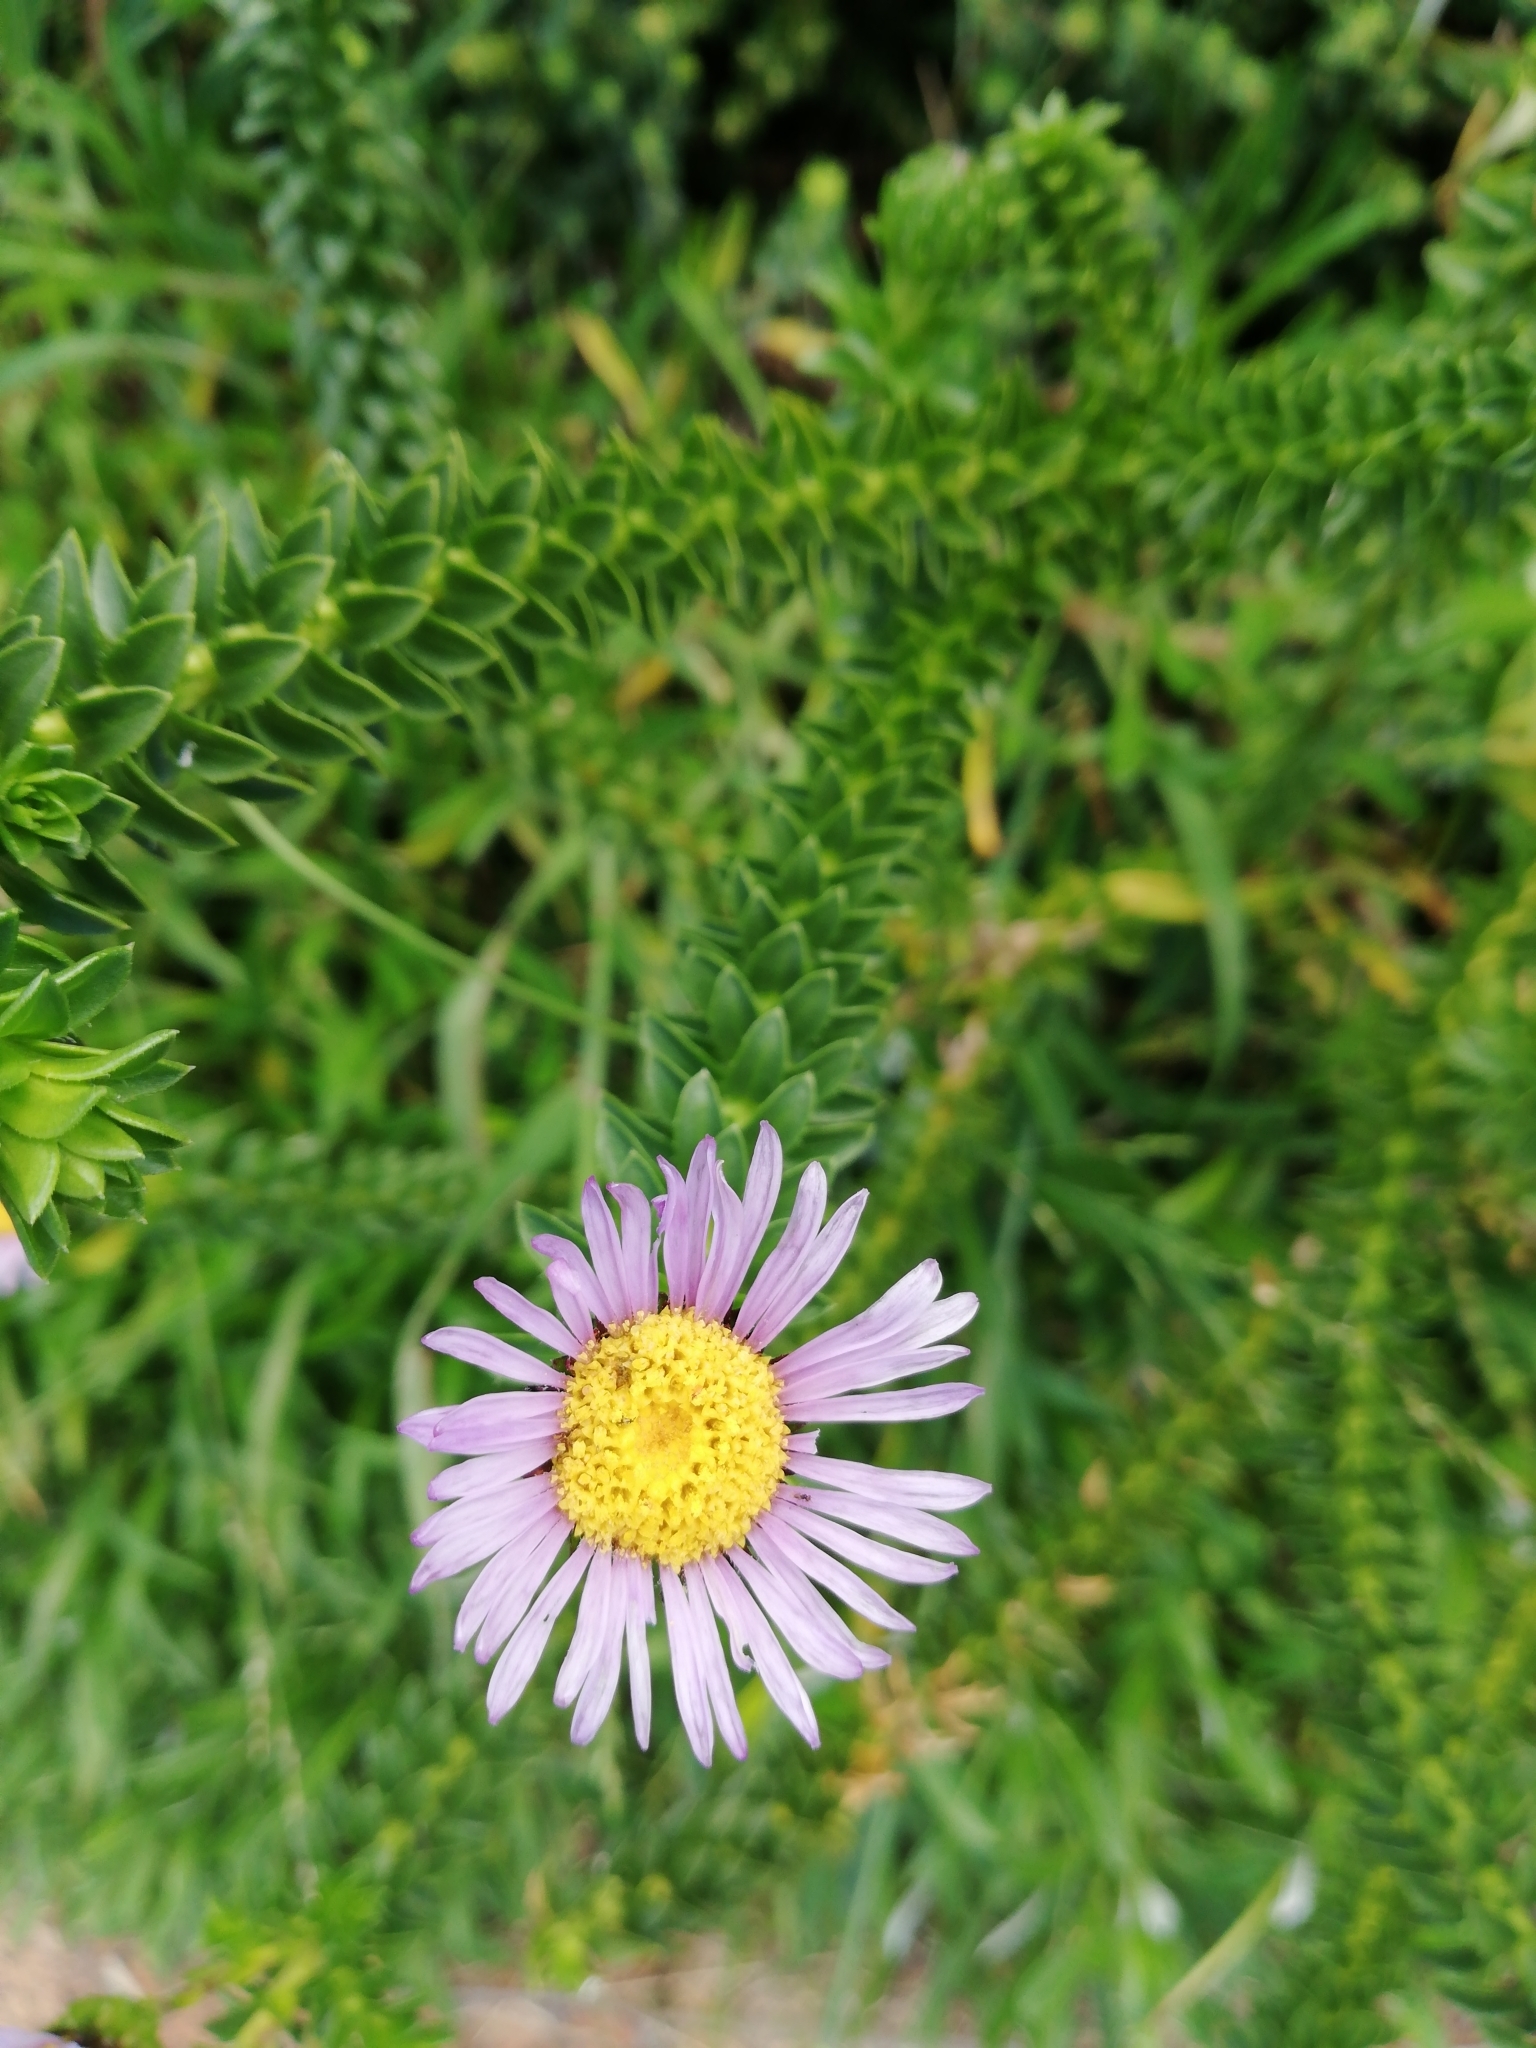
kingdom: Plantae
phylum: Tracheophyta
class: Magnoliopsida
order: Asterales
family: Asteraceae
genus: Felicia
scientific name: Felicia echinata
